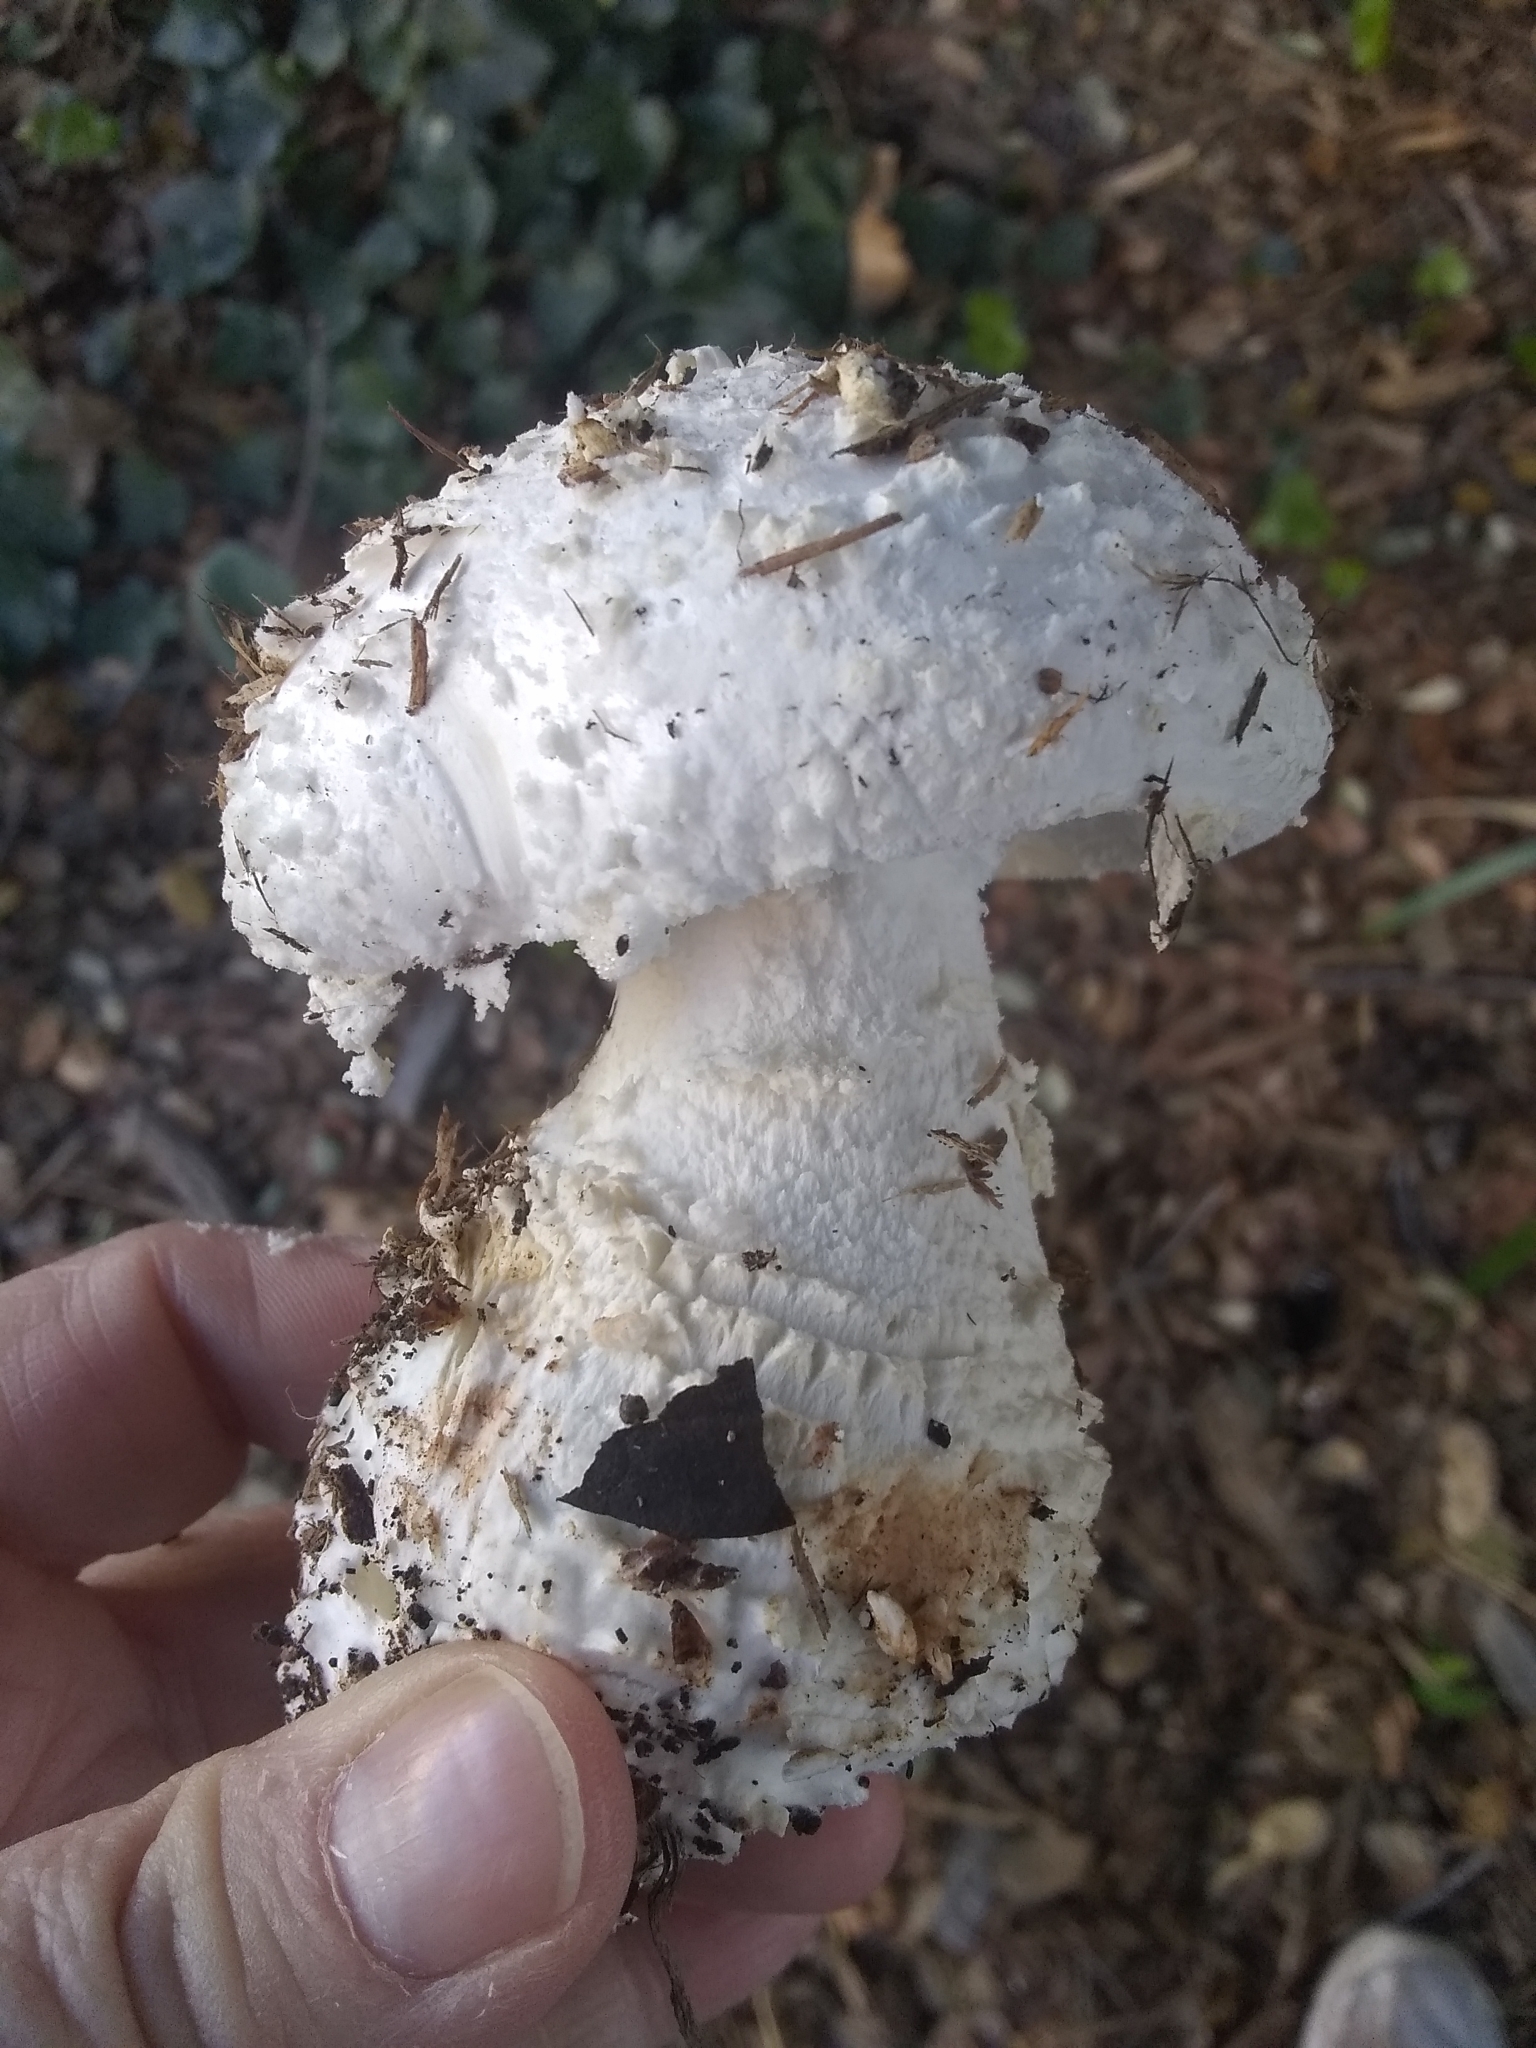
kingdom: Fungi
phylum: Basidiomycota
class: Agaricomycetes
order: Agaricales
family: Amanitaceae
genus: Amanita
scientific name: Amanita magniverrucata
